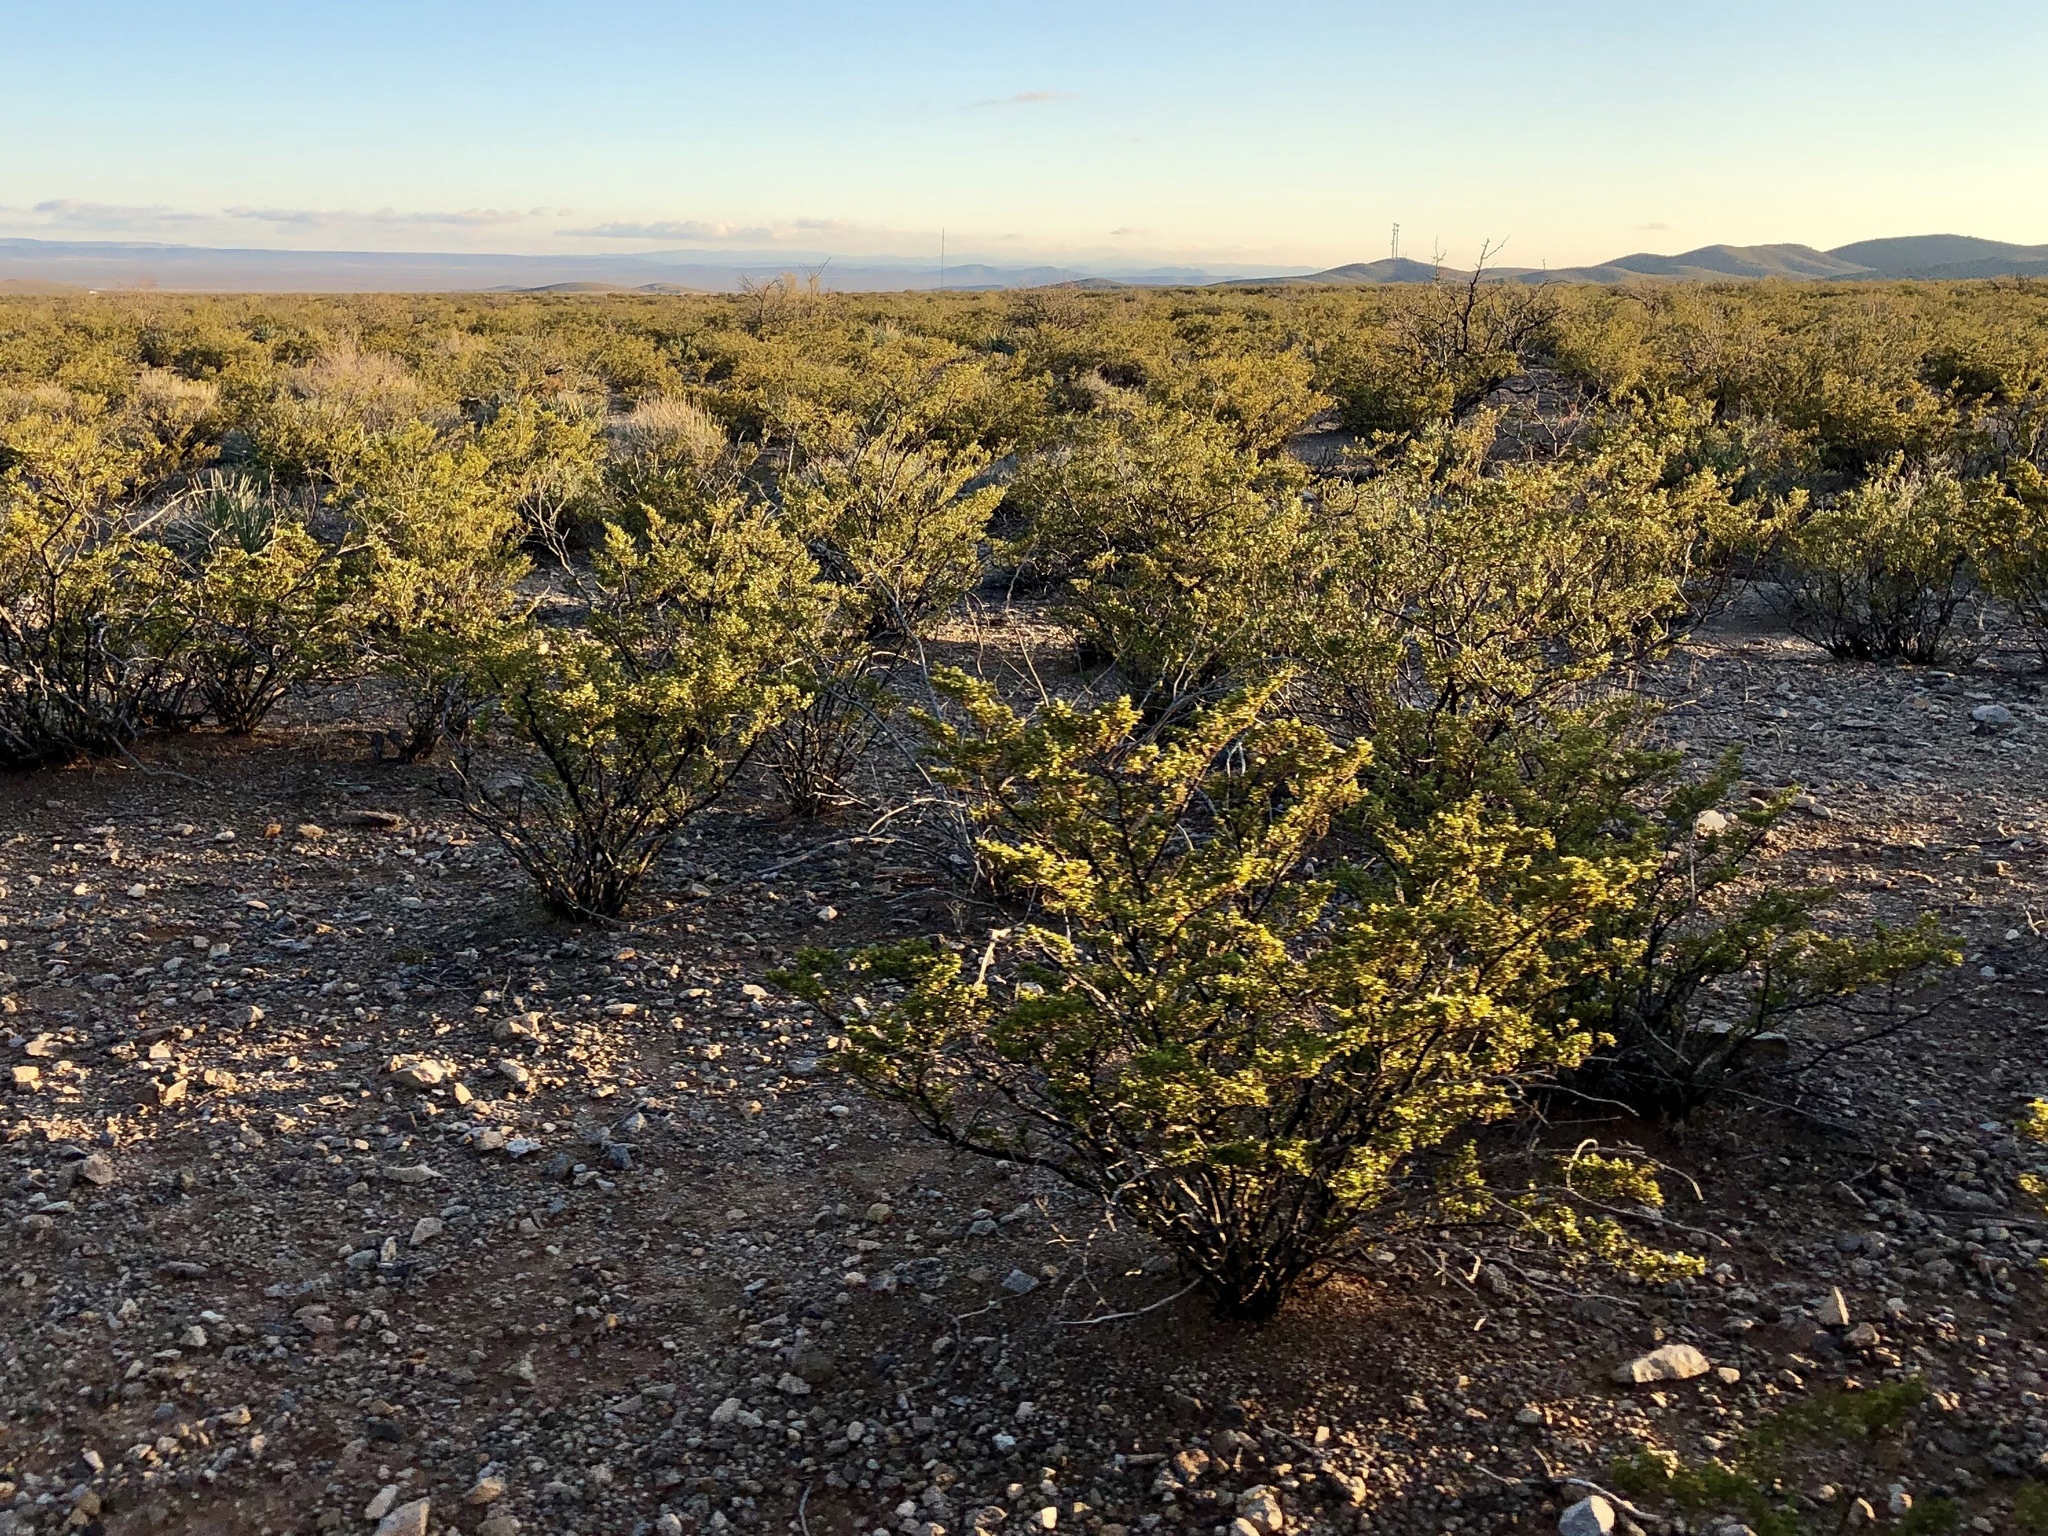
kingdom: Plantae
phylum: Tracheophyta
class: Magnoliopsida
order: Zygophyllales
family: Zygophyllaceae
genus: Larrea
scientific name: Larrea tridentata
